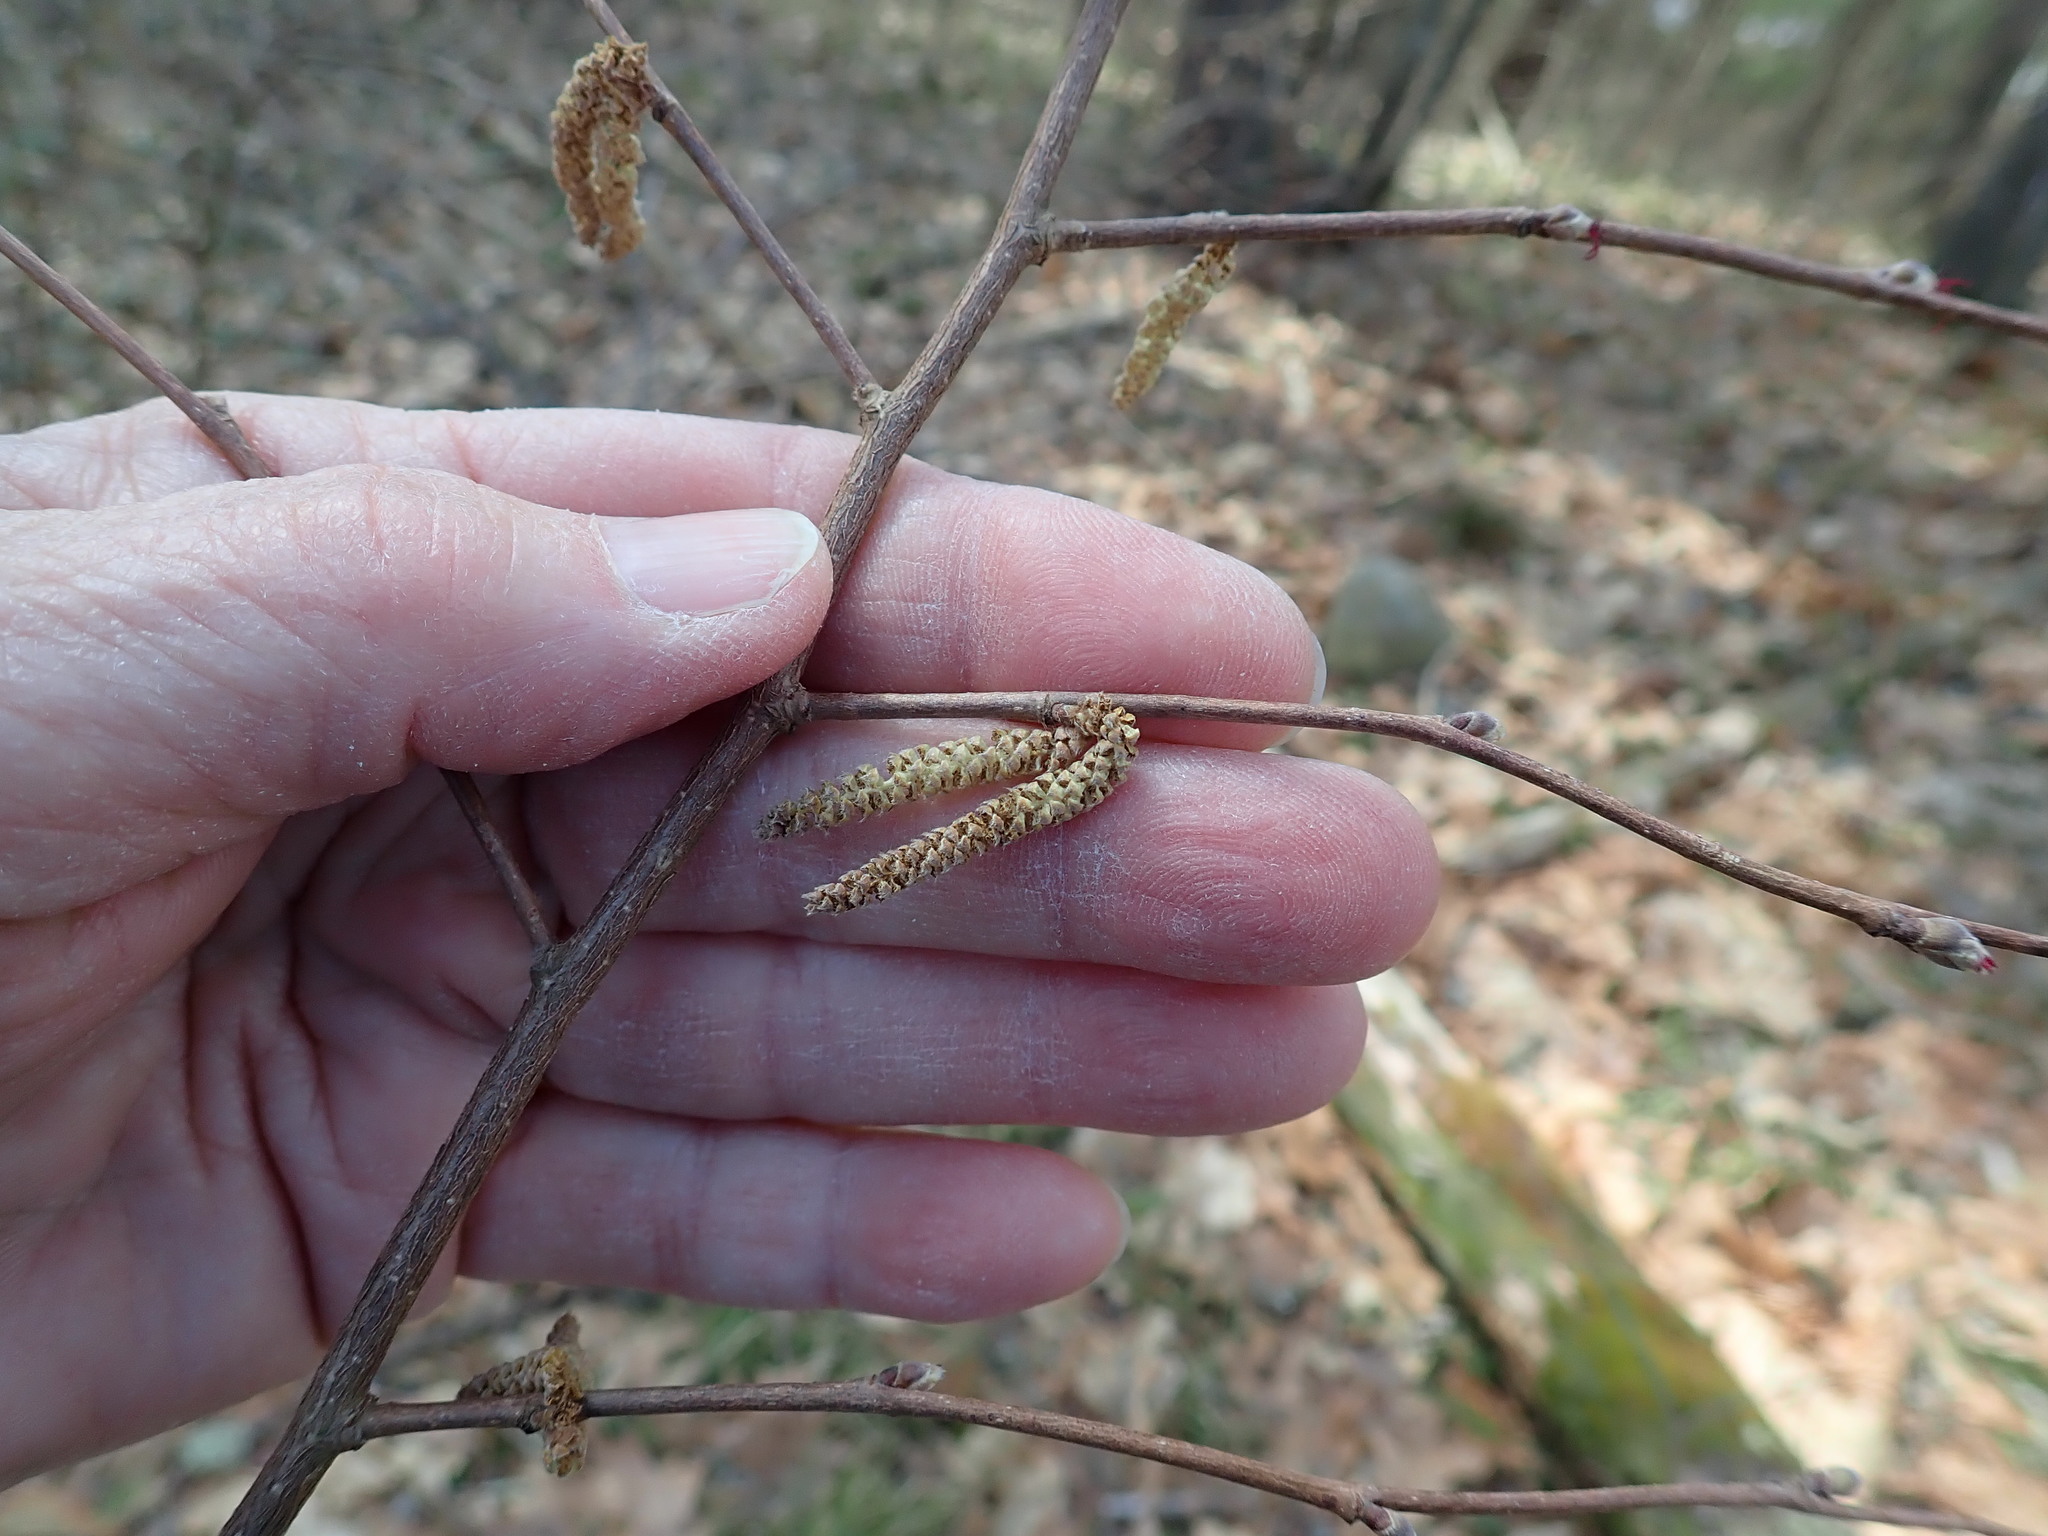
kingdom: Plantae
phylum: Tracheophyta
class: Magnoliopsida
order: Fagales
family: Betulaceae
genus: Corylus
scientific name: Corylus cornuta
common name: Beaked hazel
